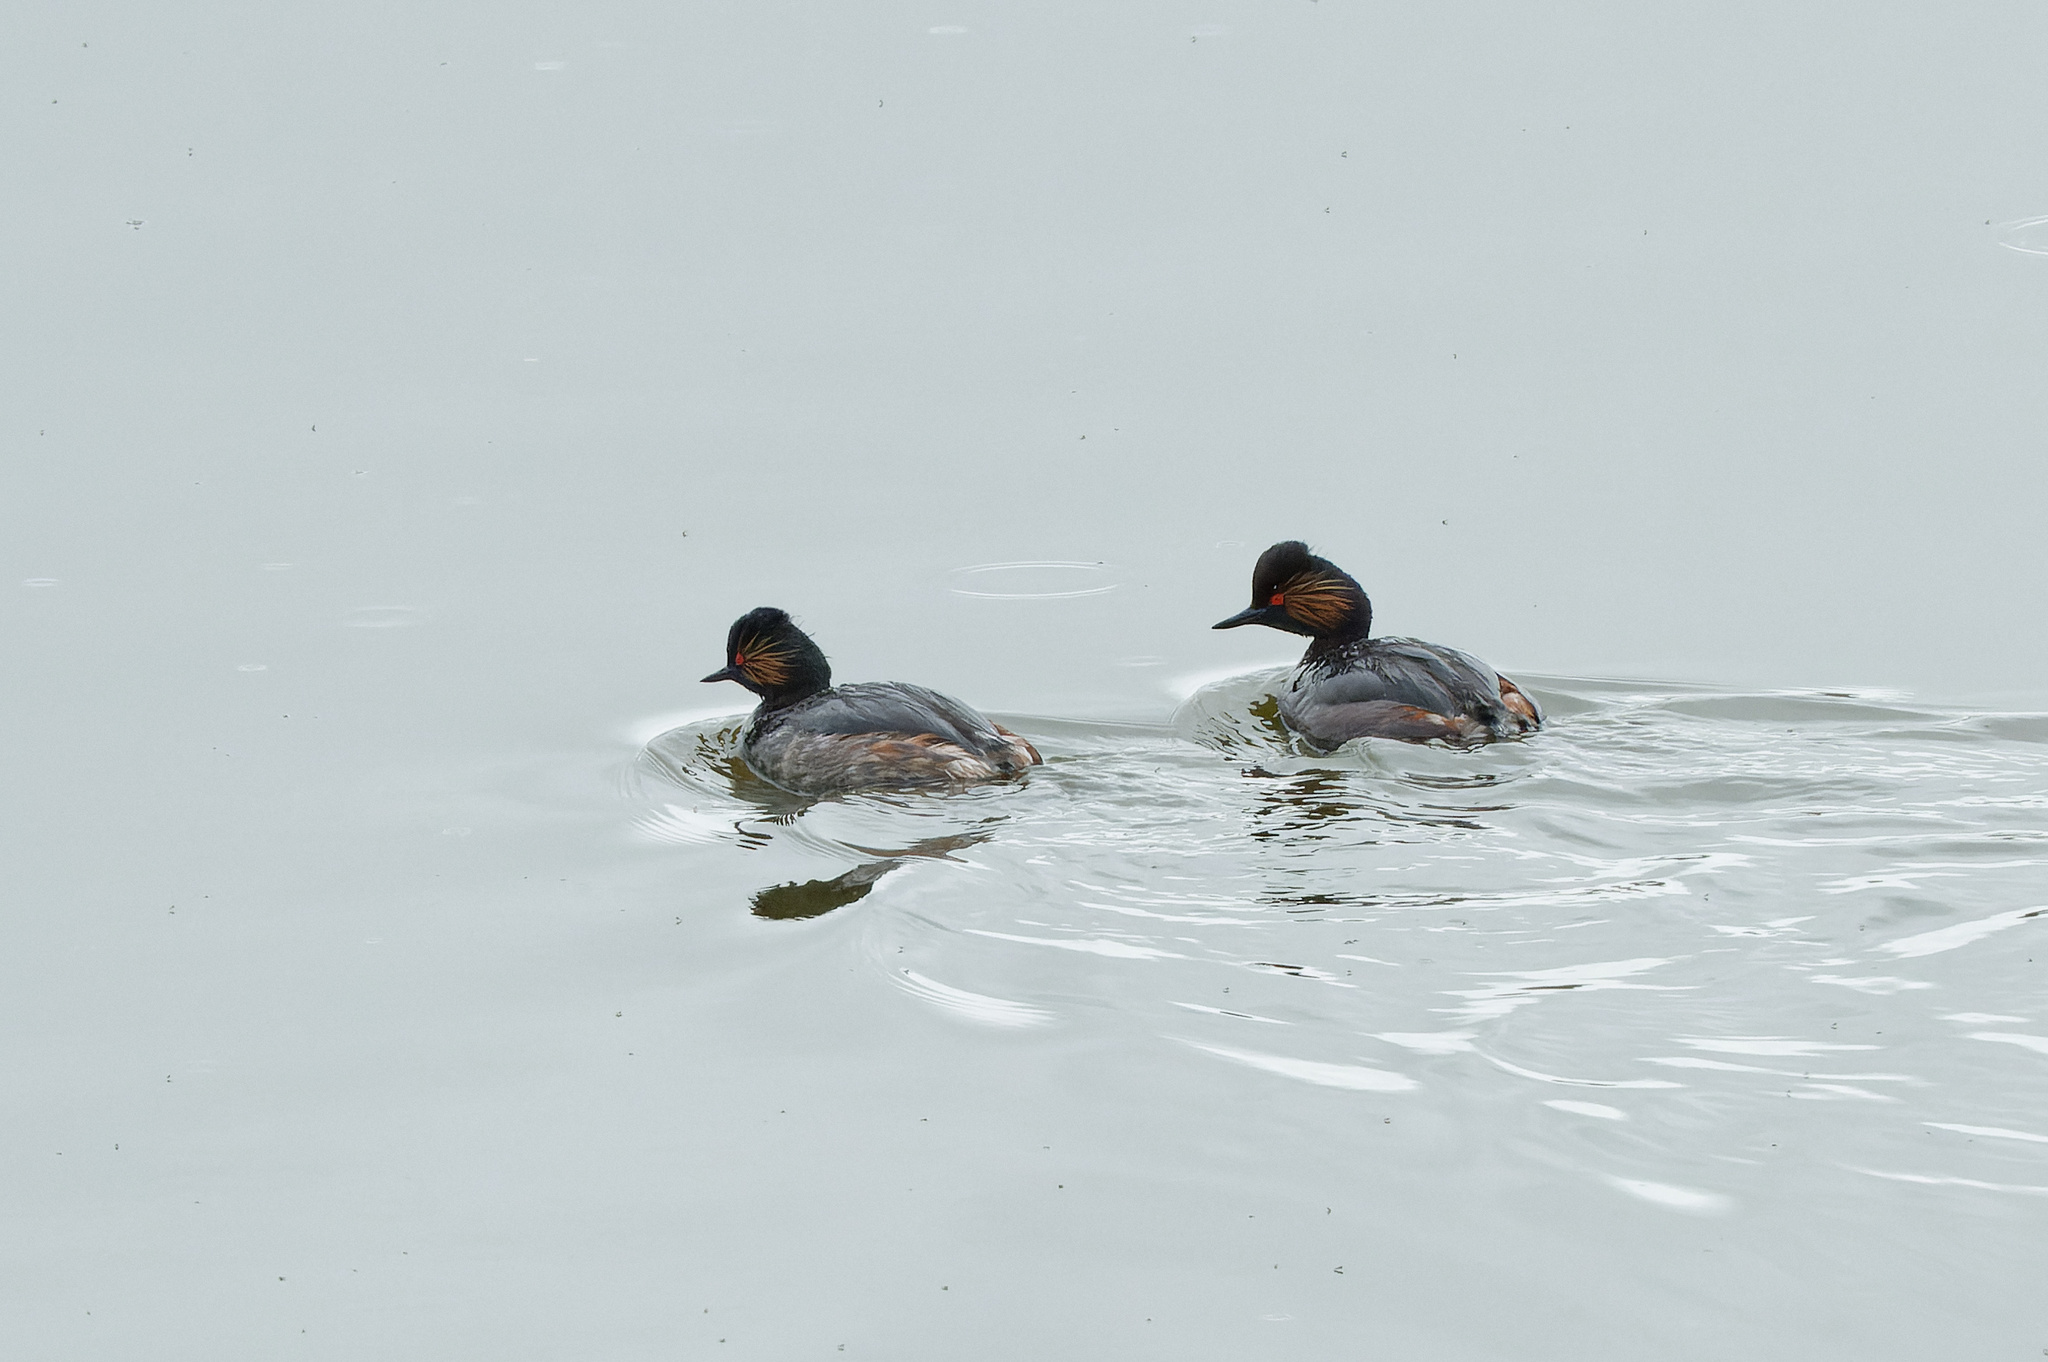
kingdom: Animalia
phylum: Chordata
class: Aves
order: Podicipediformes
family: Podicipedidae
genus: Podiceps
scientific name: Podiceps nigricollis
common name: Black-necked grebe
